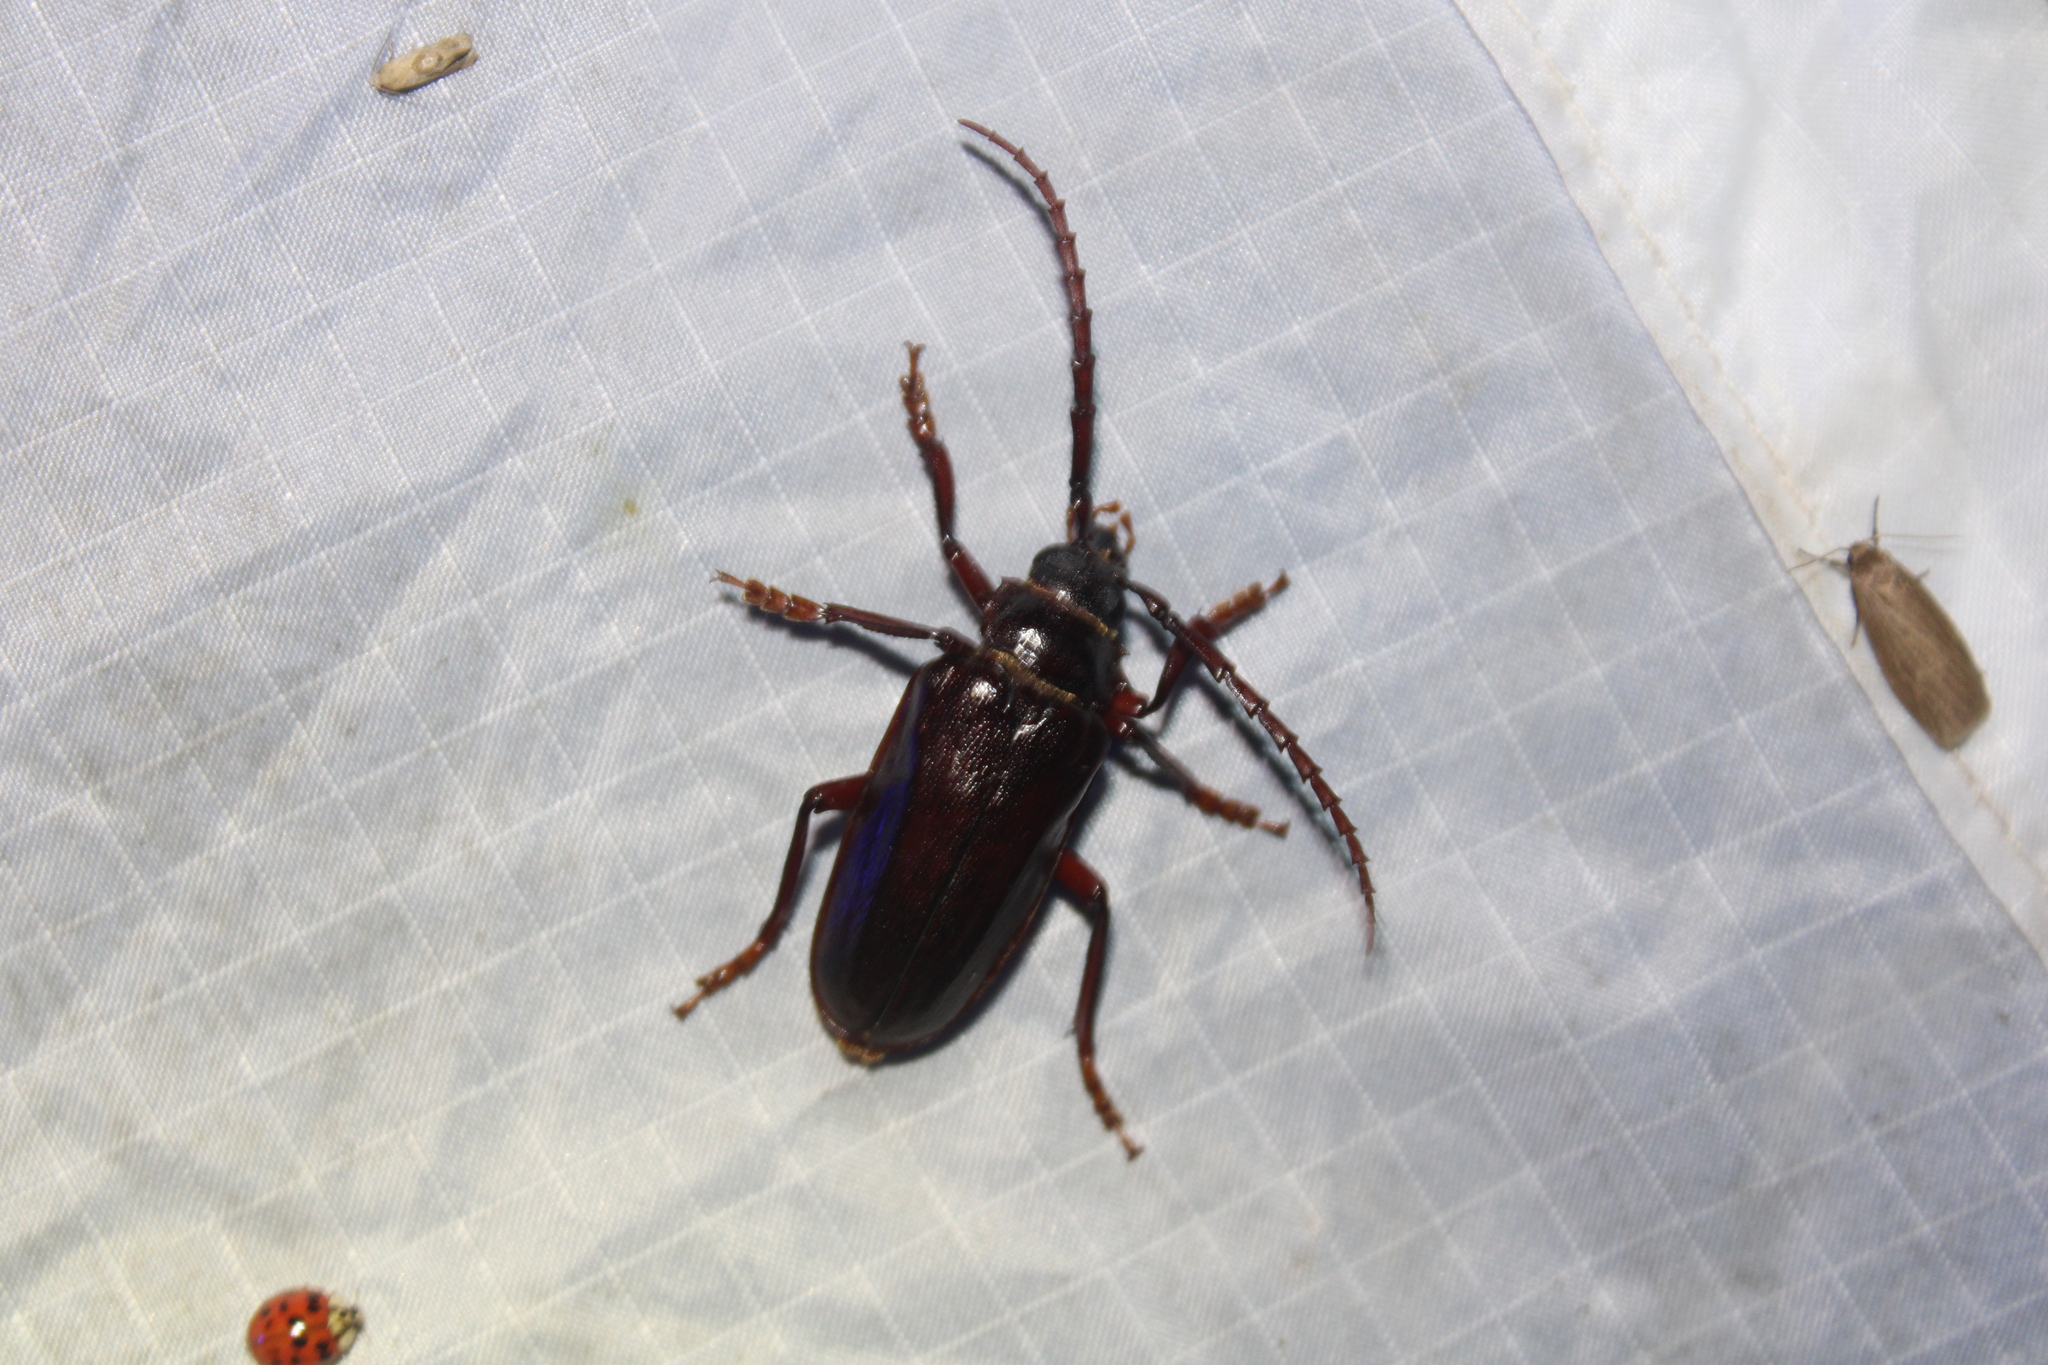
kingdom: Animalia
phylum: Arthropoda
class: Insecta
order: Coleoptera
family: Cerambycidae
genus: Prionus
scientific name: Prionus pocularis
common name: Tooth-necked longhorn beetle
